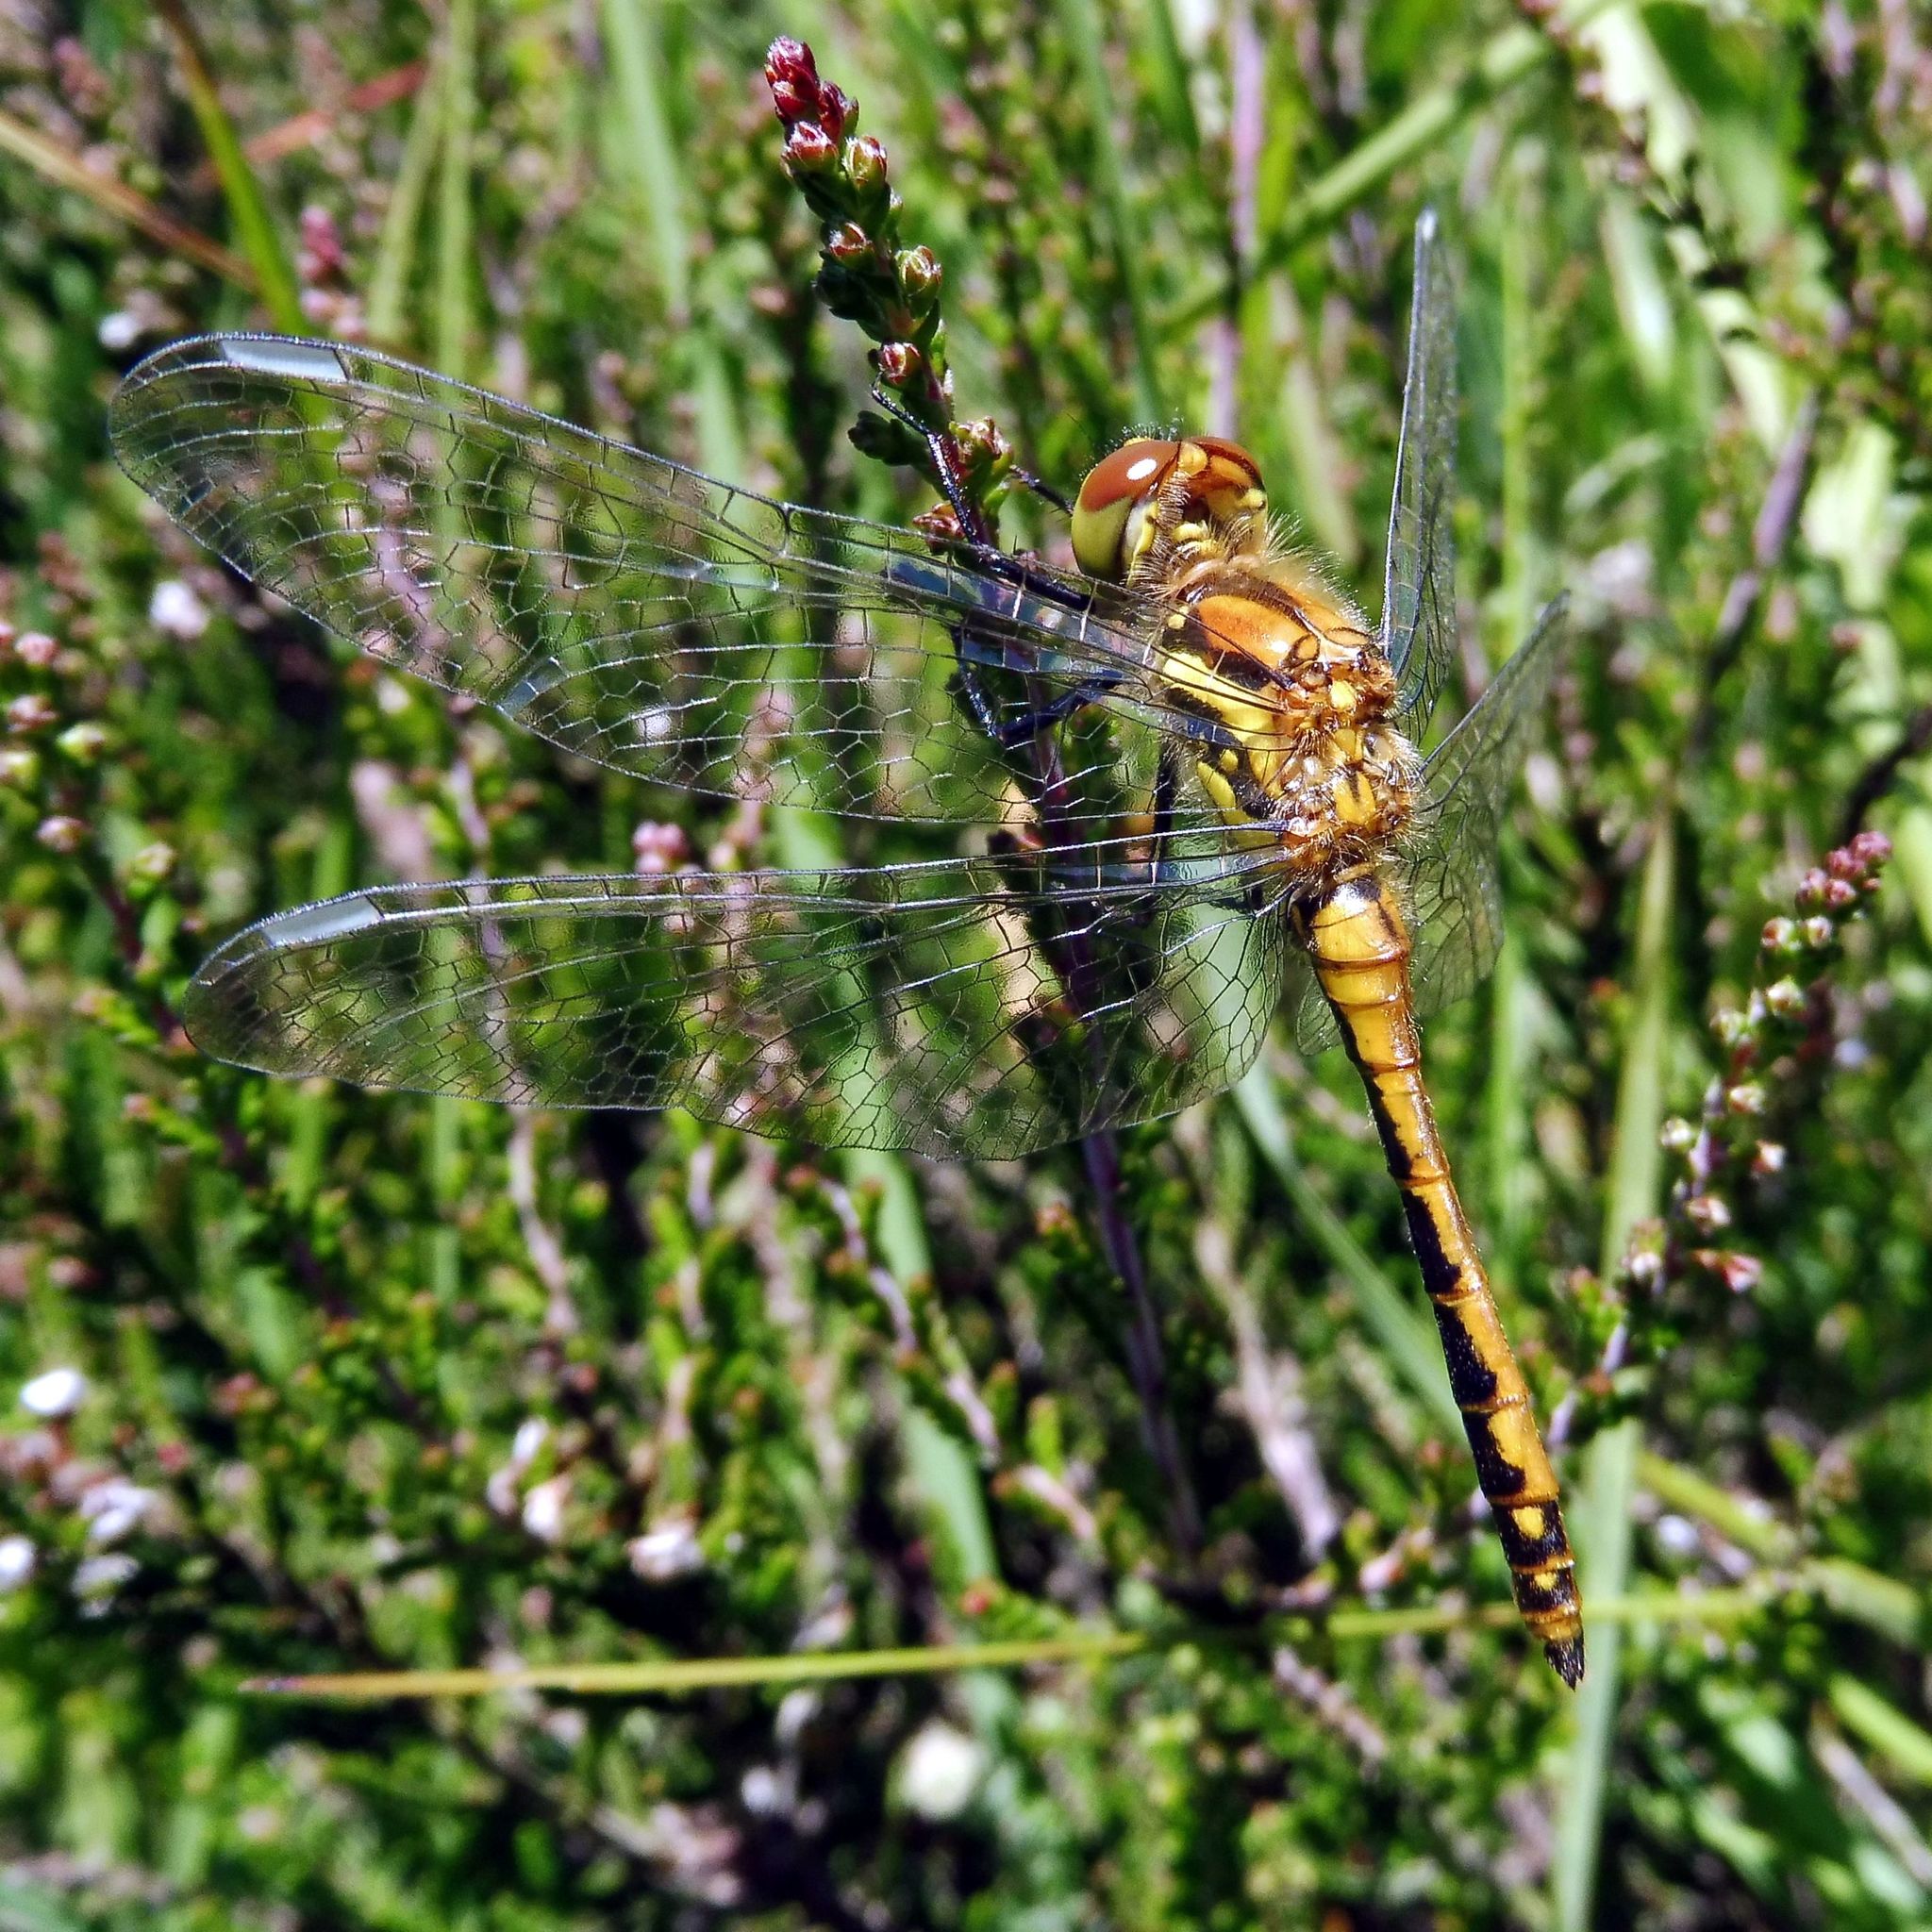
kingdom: Animalia
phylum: Arthropoda
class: Insecta
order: Odonata
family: Libellulidae
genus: Sympetrum
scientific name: Sympetrum danae
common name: Black darter
